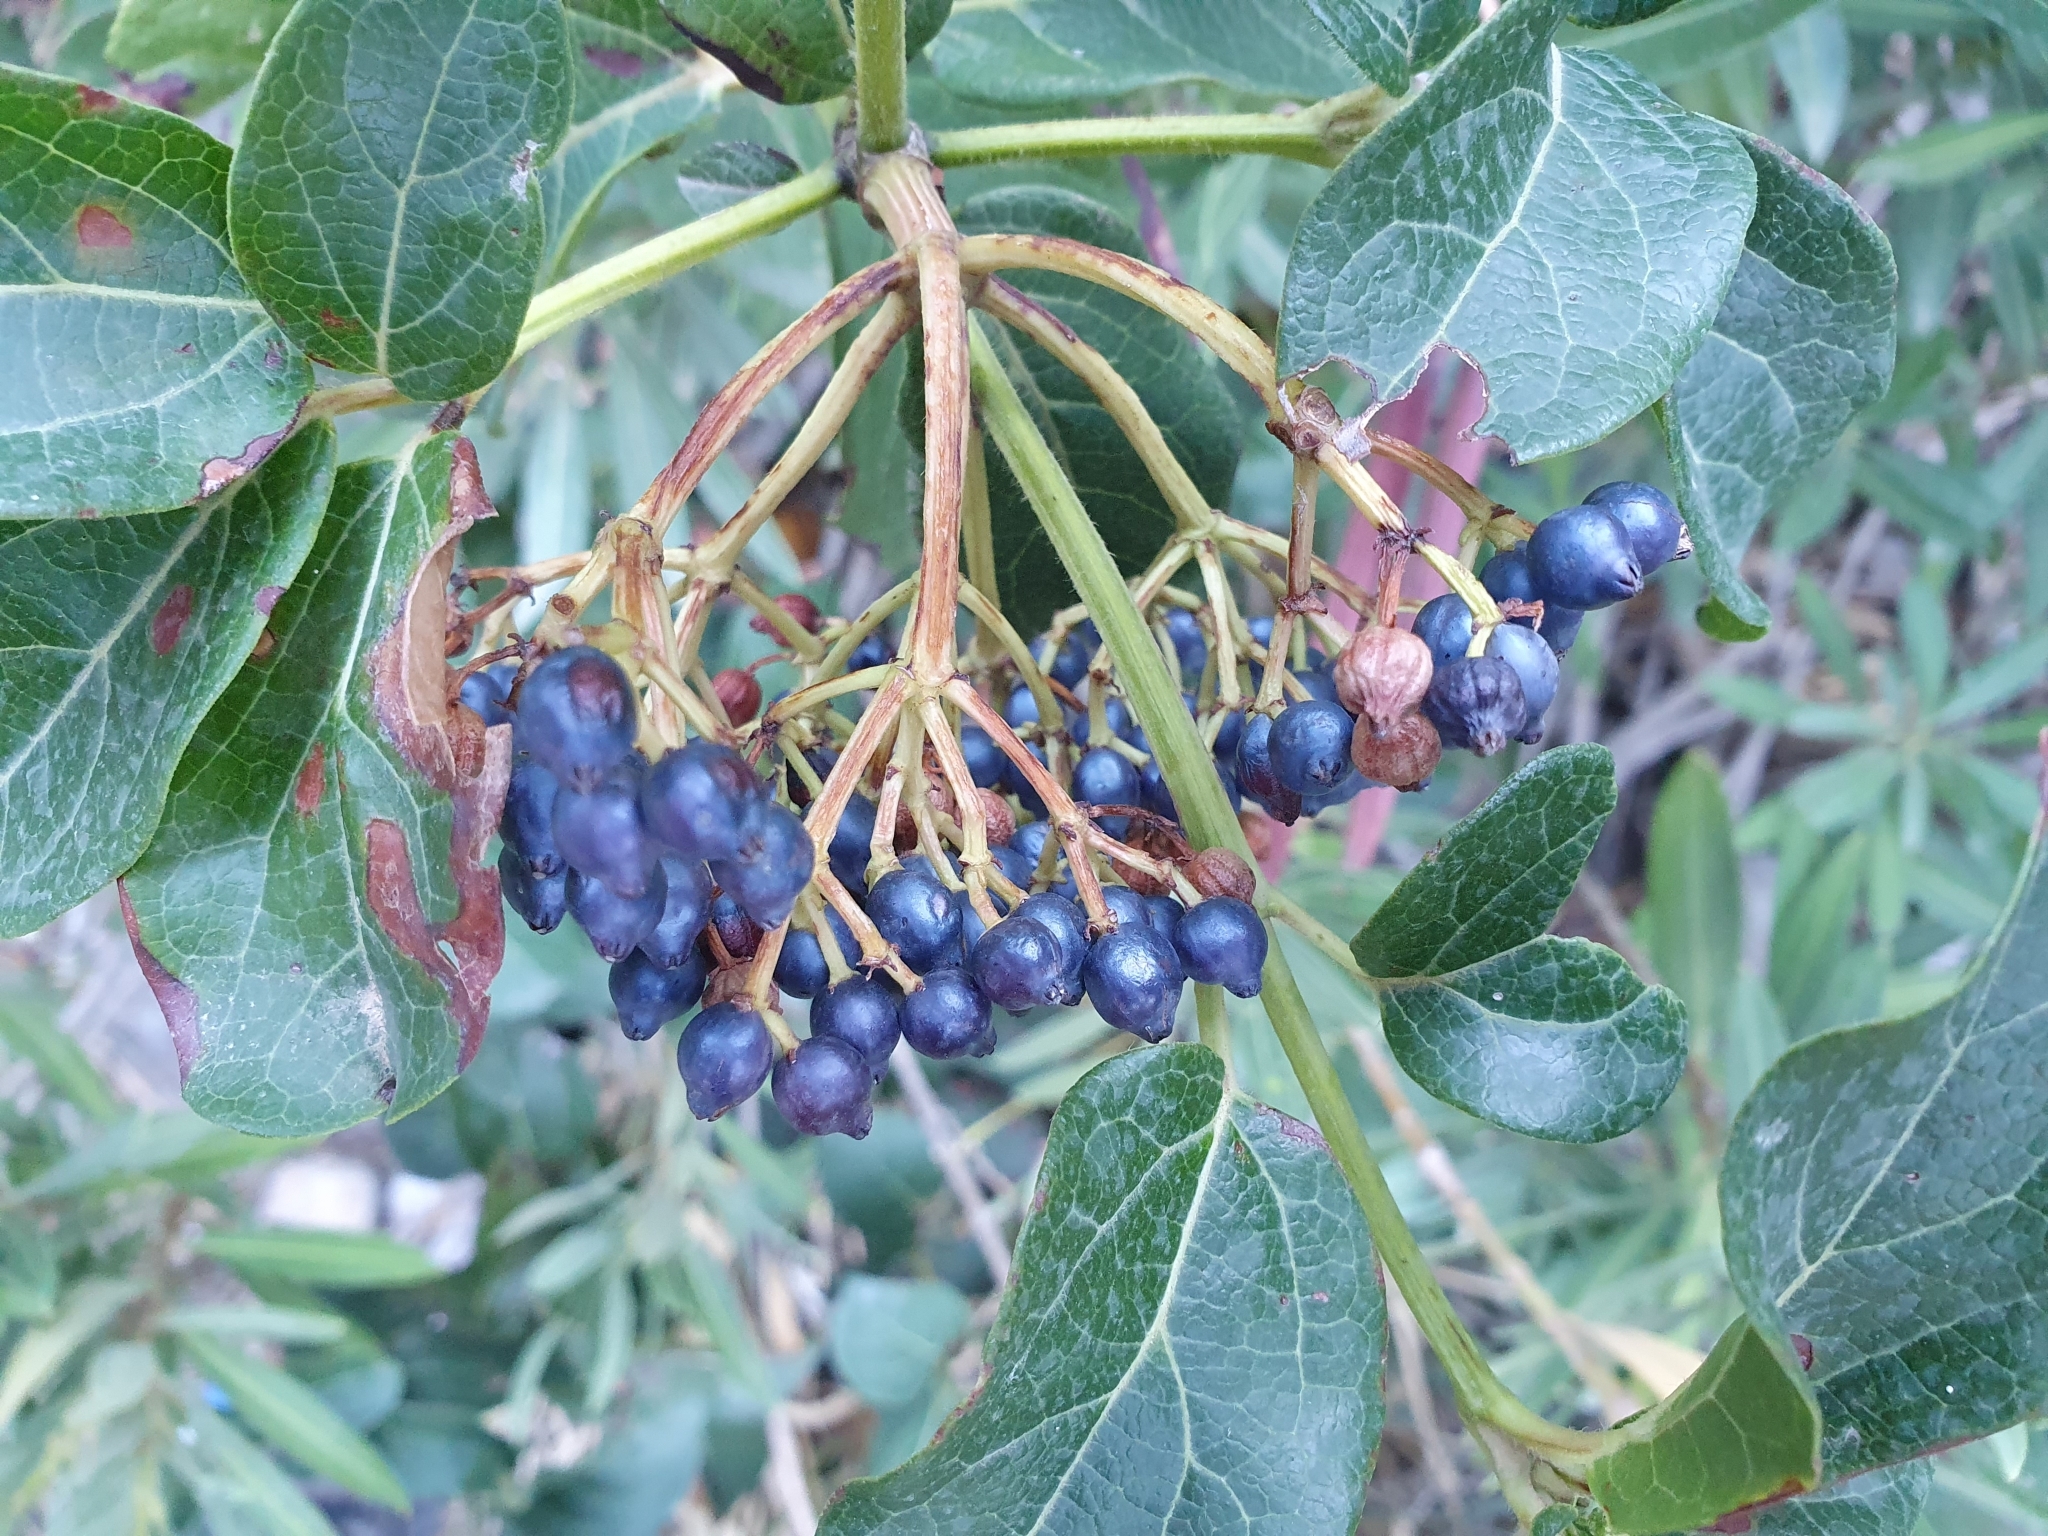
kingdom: Plantae
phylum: Tracheophyta
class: Magnoliopsida
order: Dipsacales
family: Viburnaceae
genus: Viburnum
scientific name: Viburnum tinus
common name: Laurustinus
